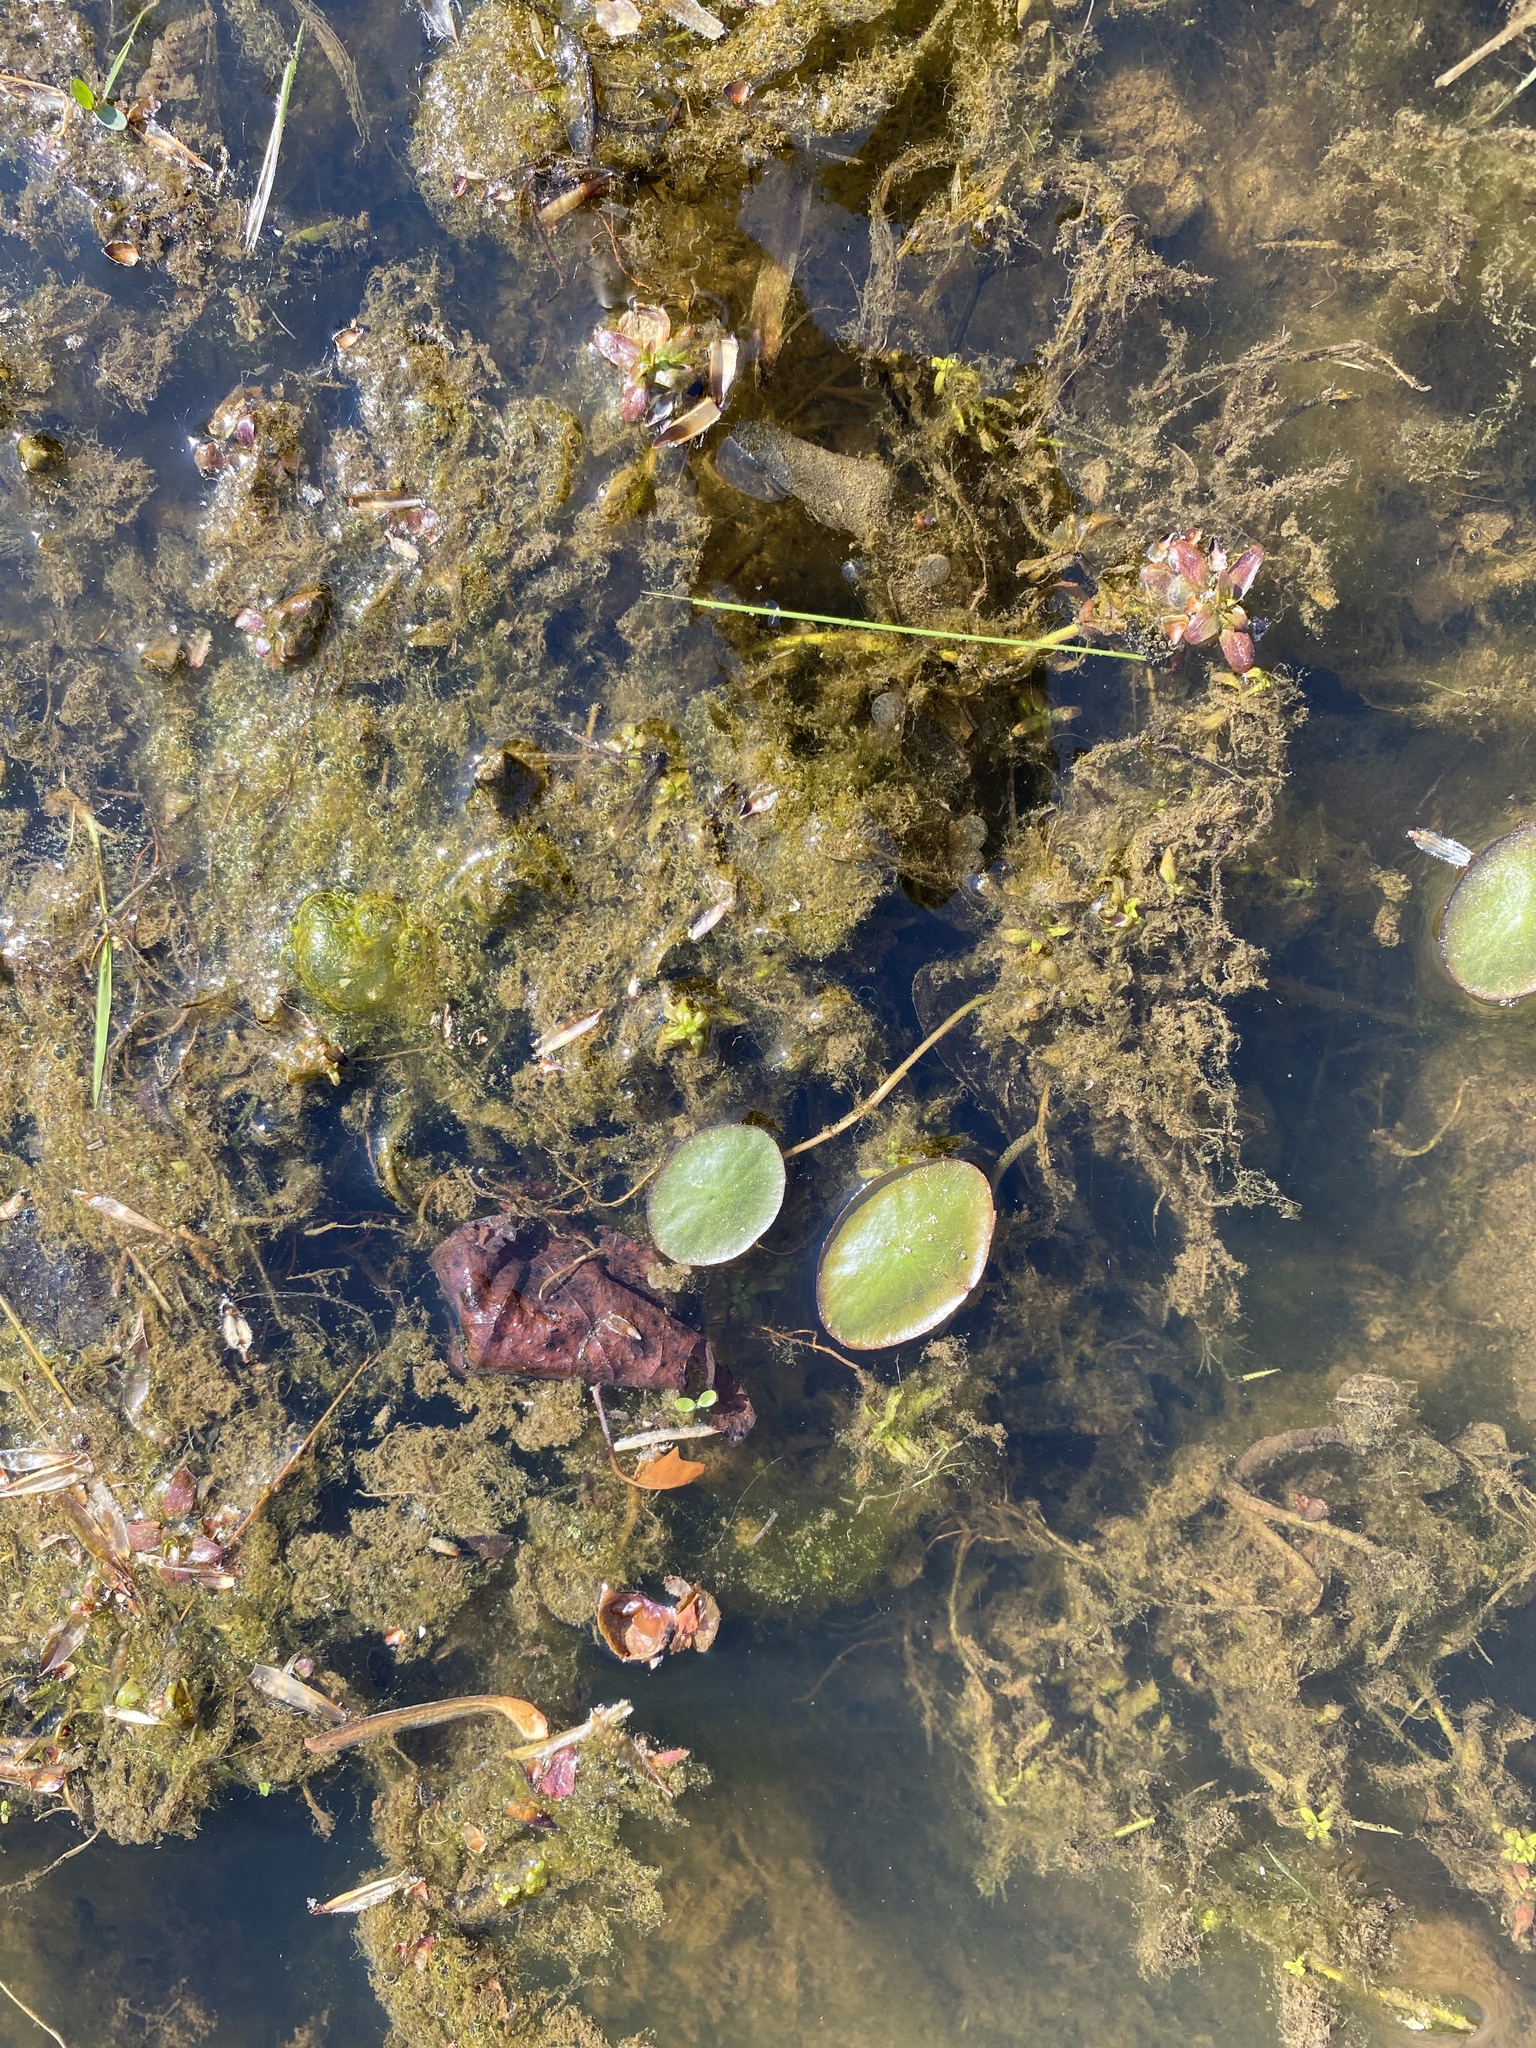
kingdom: Plantae
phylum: Tracheophyta
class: Magnoliopsida
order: Nymphaeales
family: Cabombaceae
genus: Brasenia
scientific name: Brasenia schreberi
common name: Water-shield
